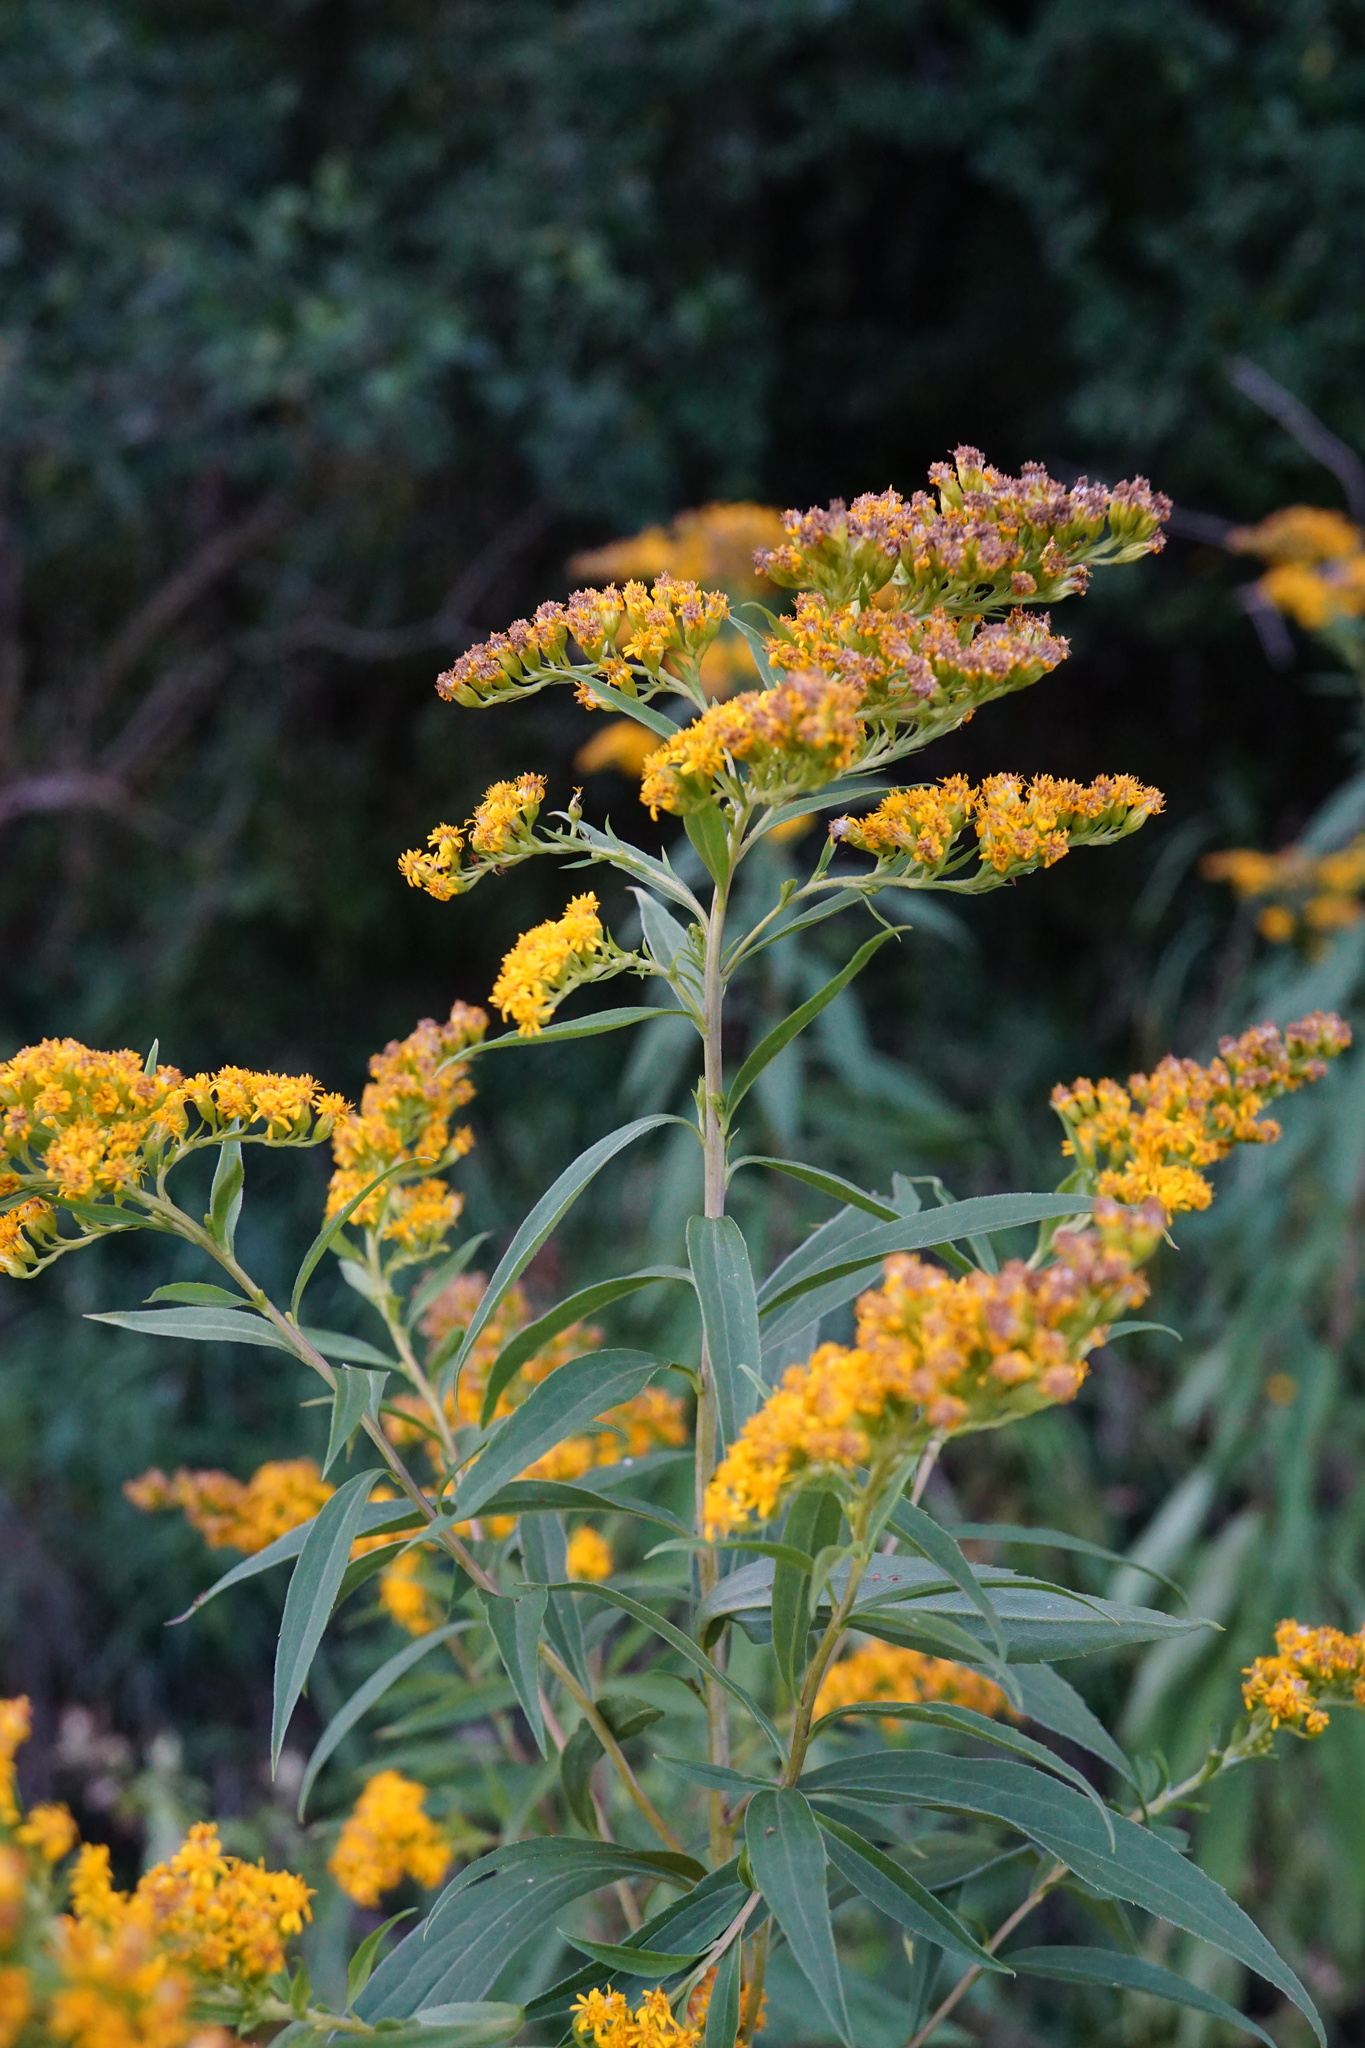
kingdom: Plantae
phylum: Tracheophyta
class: Magnoliopsida
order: Asterales
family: Asteraceae
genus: Solidago
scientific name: Solidago gigantea
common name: Giant goldenrod
